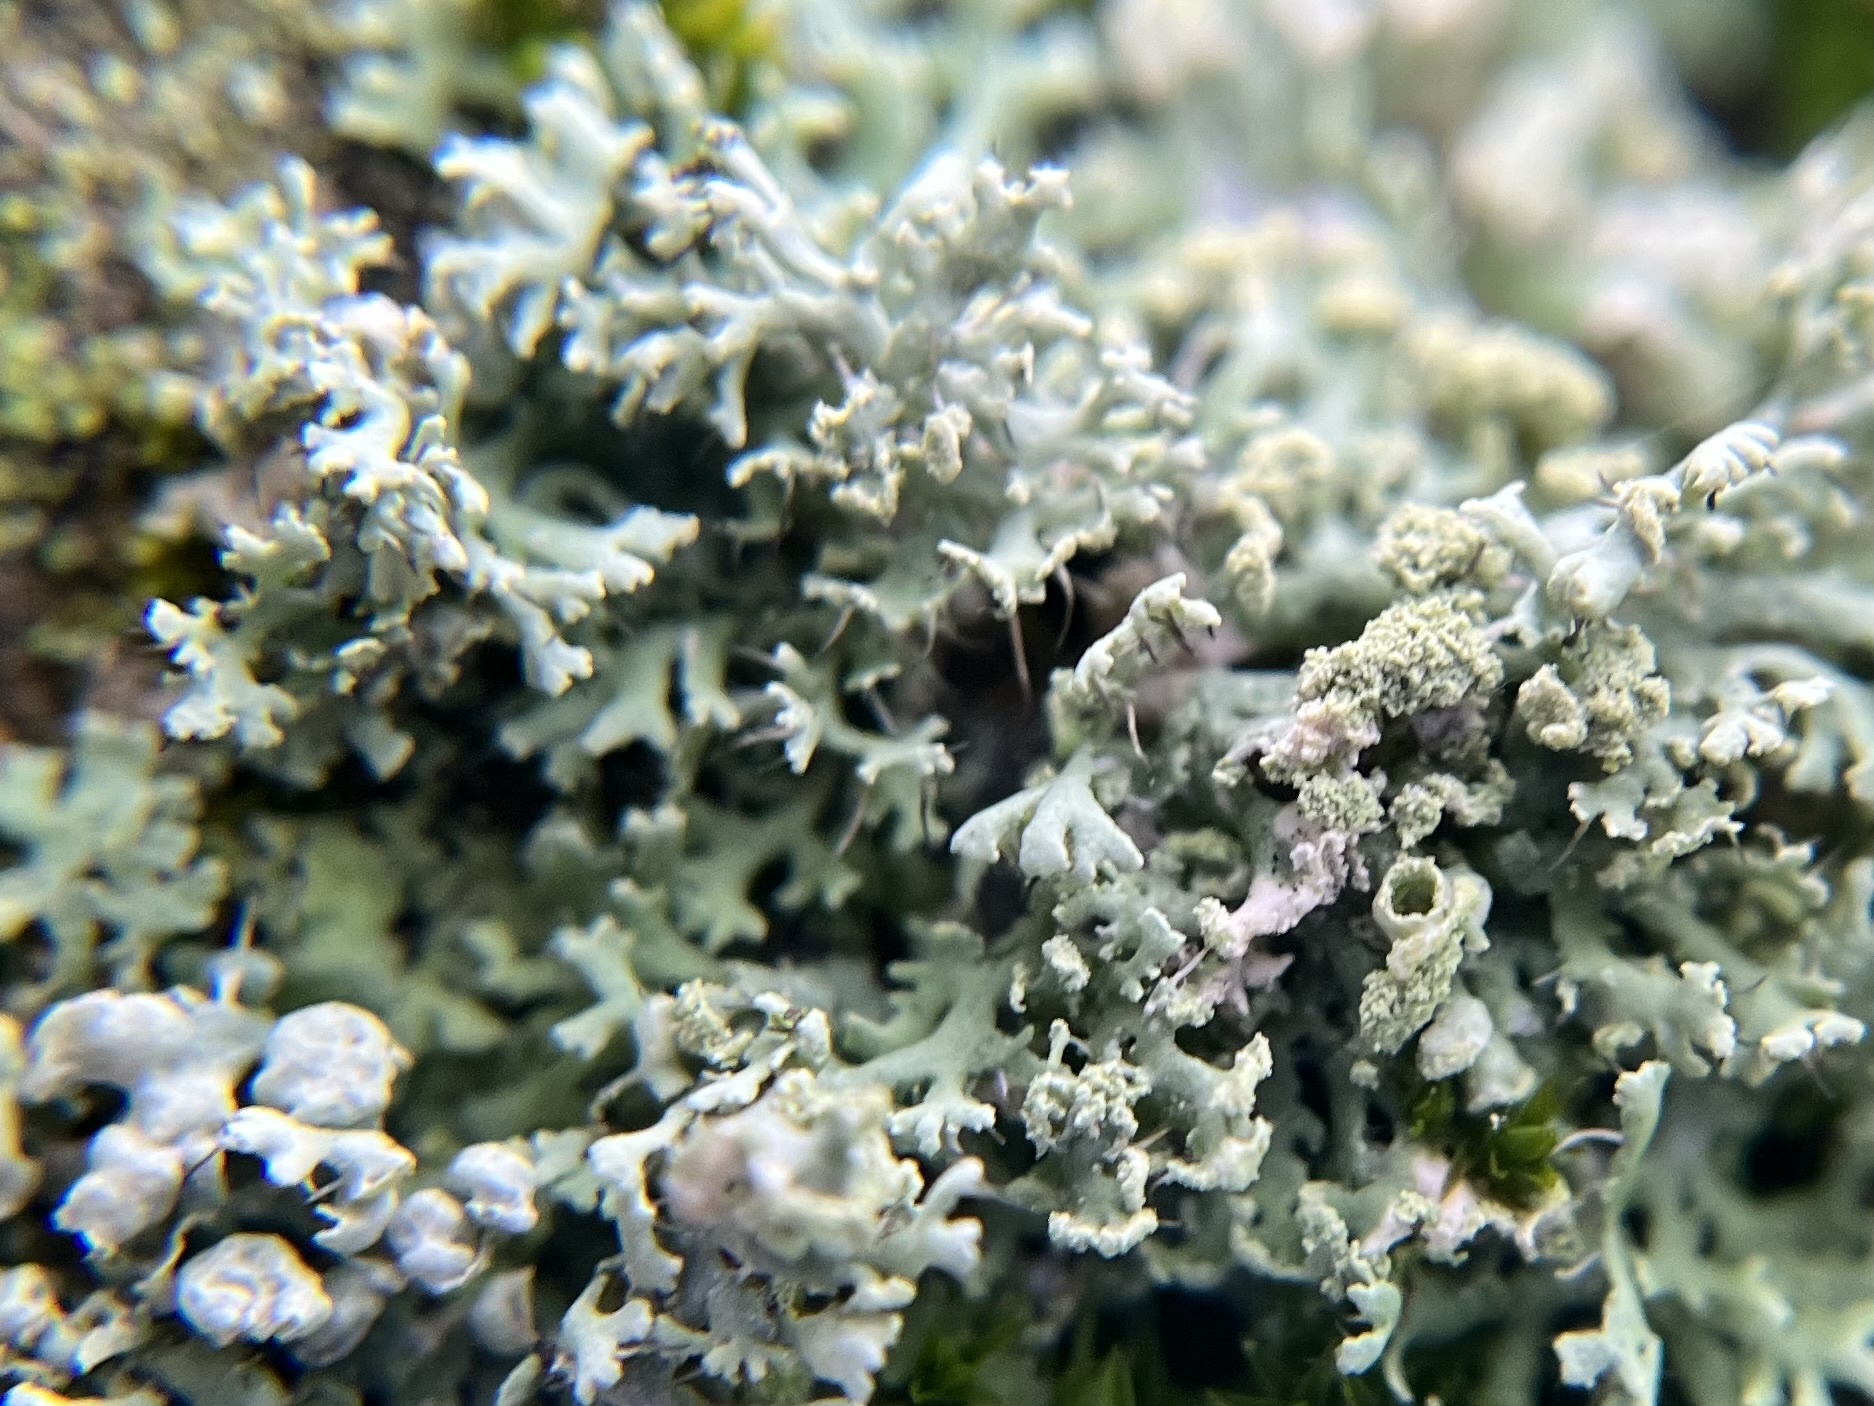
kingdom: Fungi
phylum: Ascomycota
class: Lecanoromycetes
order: Caliciales
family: Physciaceae
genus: Physcia
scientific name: Physcia tenella
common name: Fringed rosette lichen
